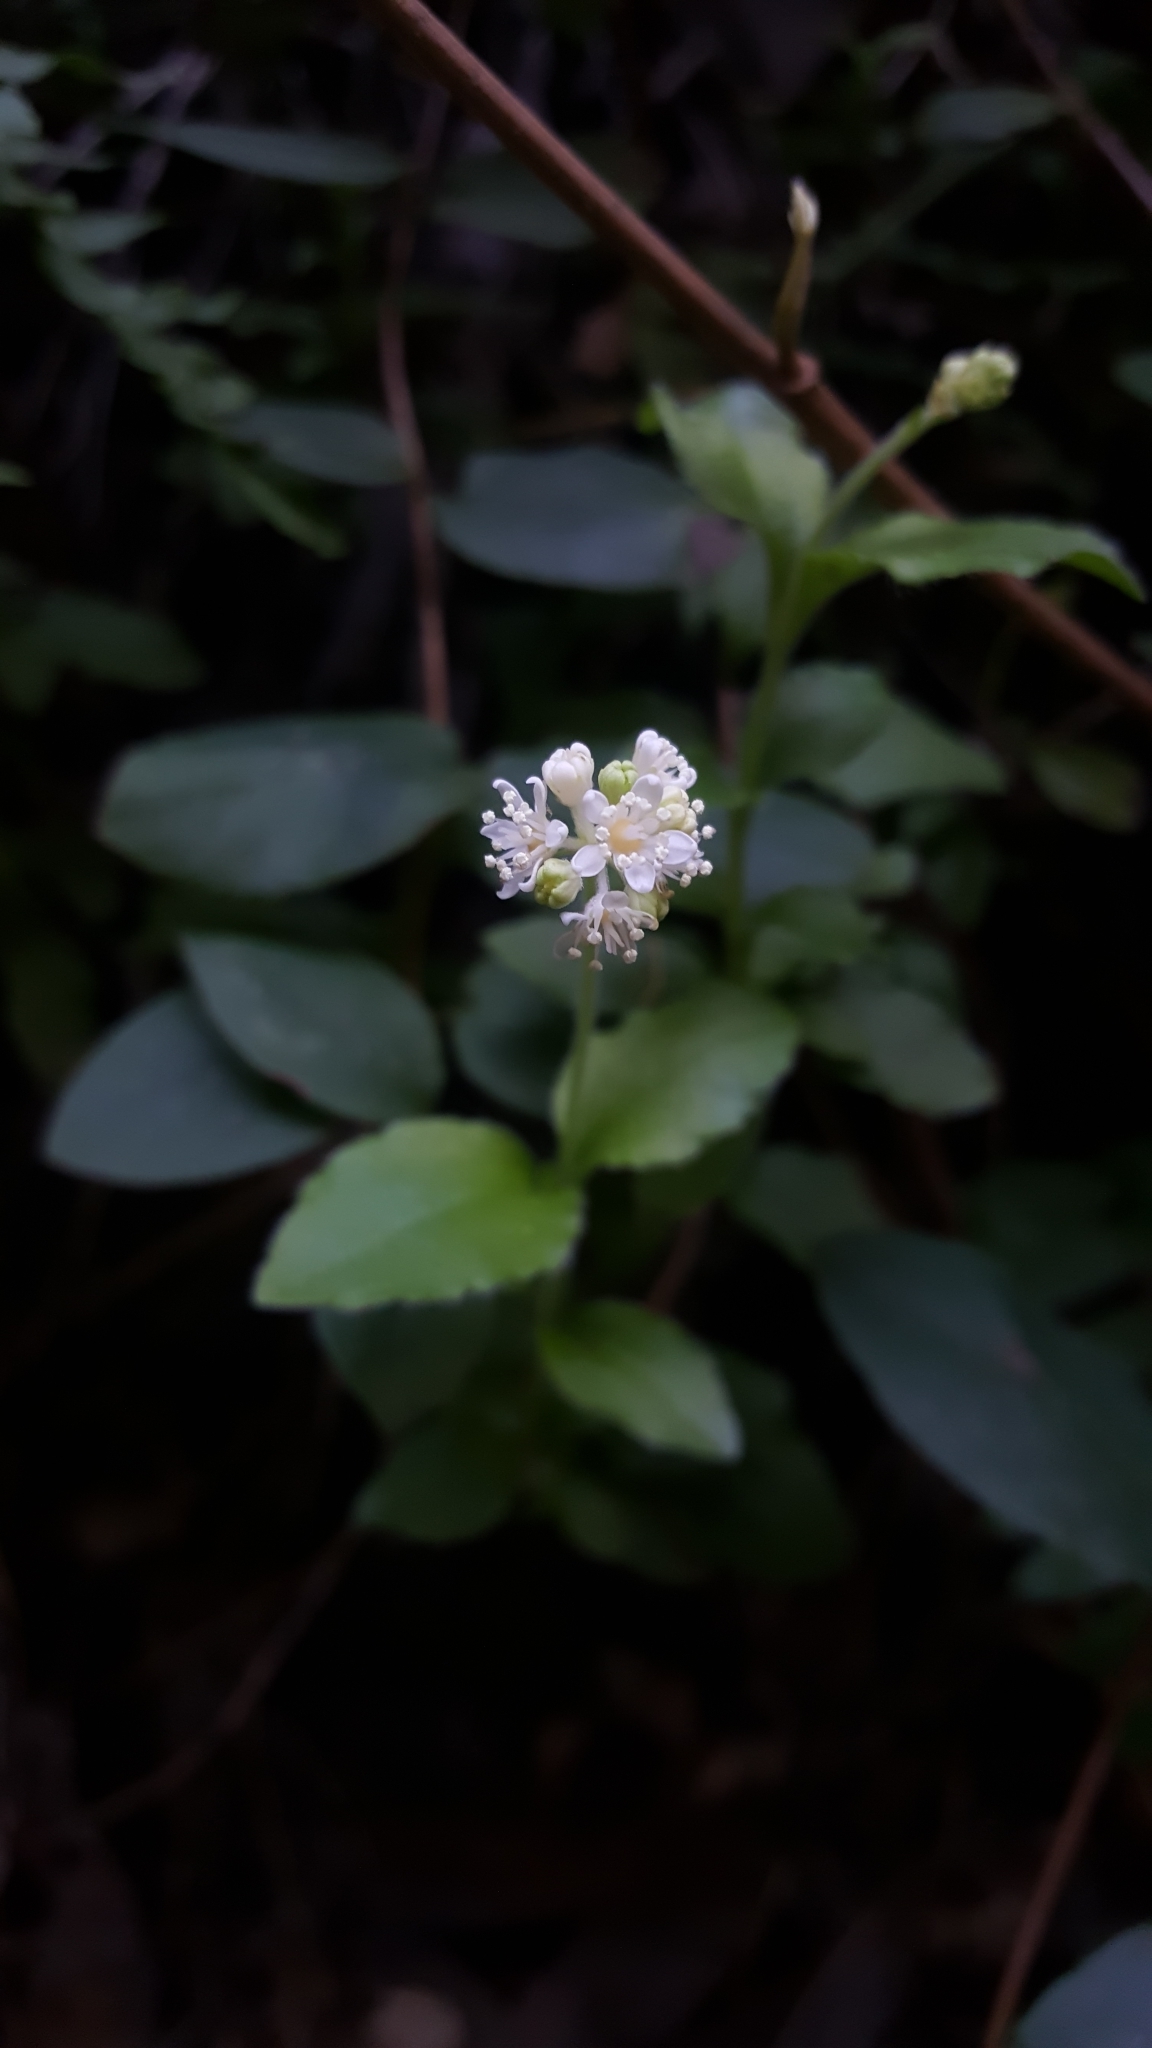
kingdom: Plantae
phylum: Tracheophyta
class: Magnoliopsida
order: Cornales
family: Hydrangeaceae
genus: Whipplea
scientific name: Whipplea modesta
